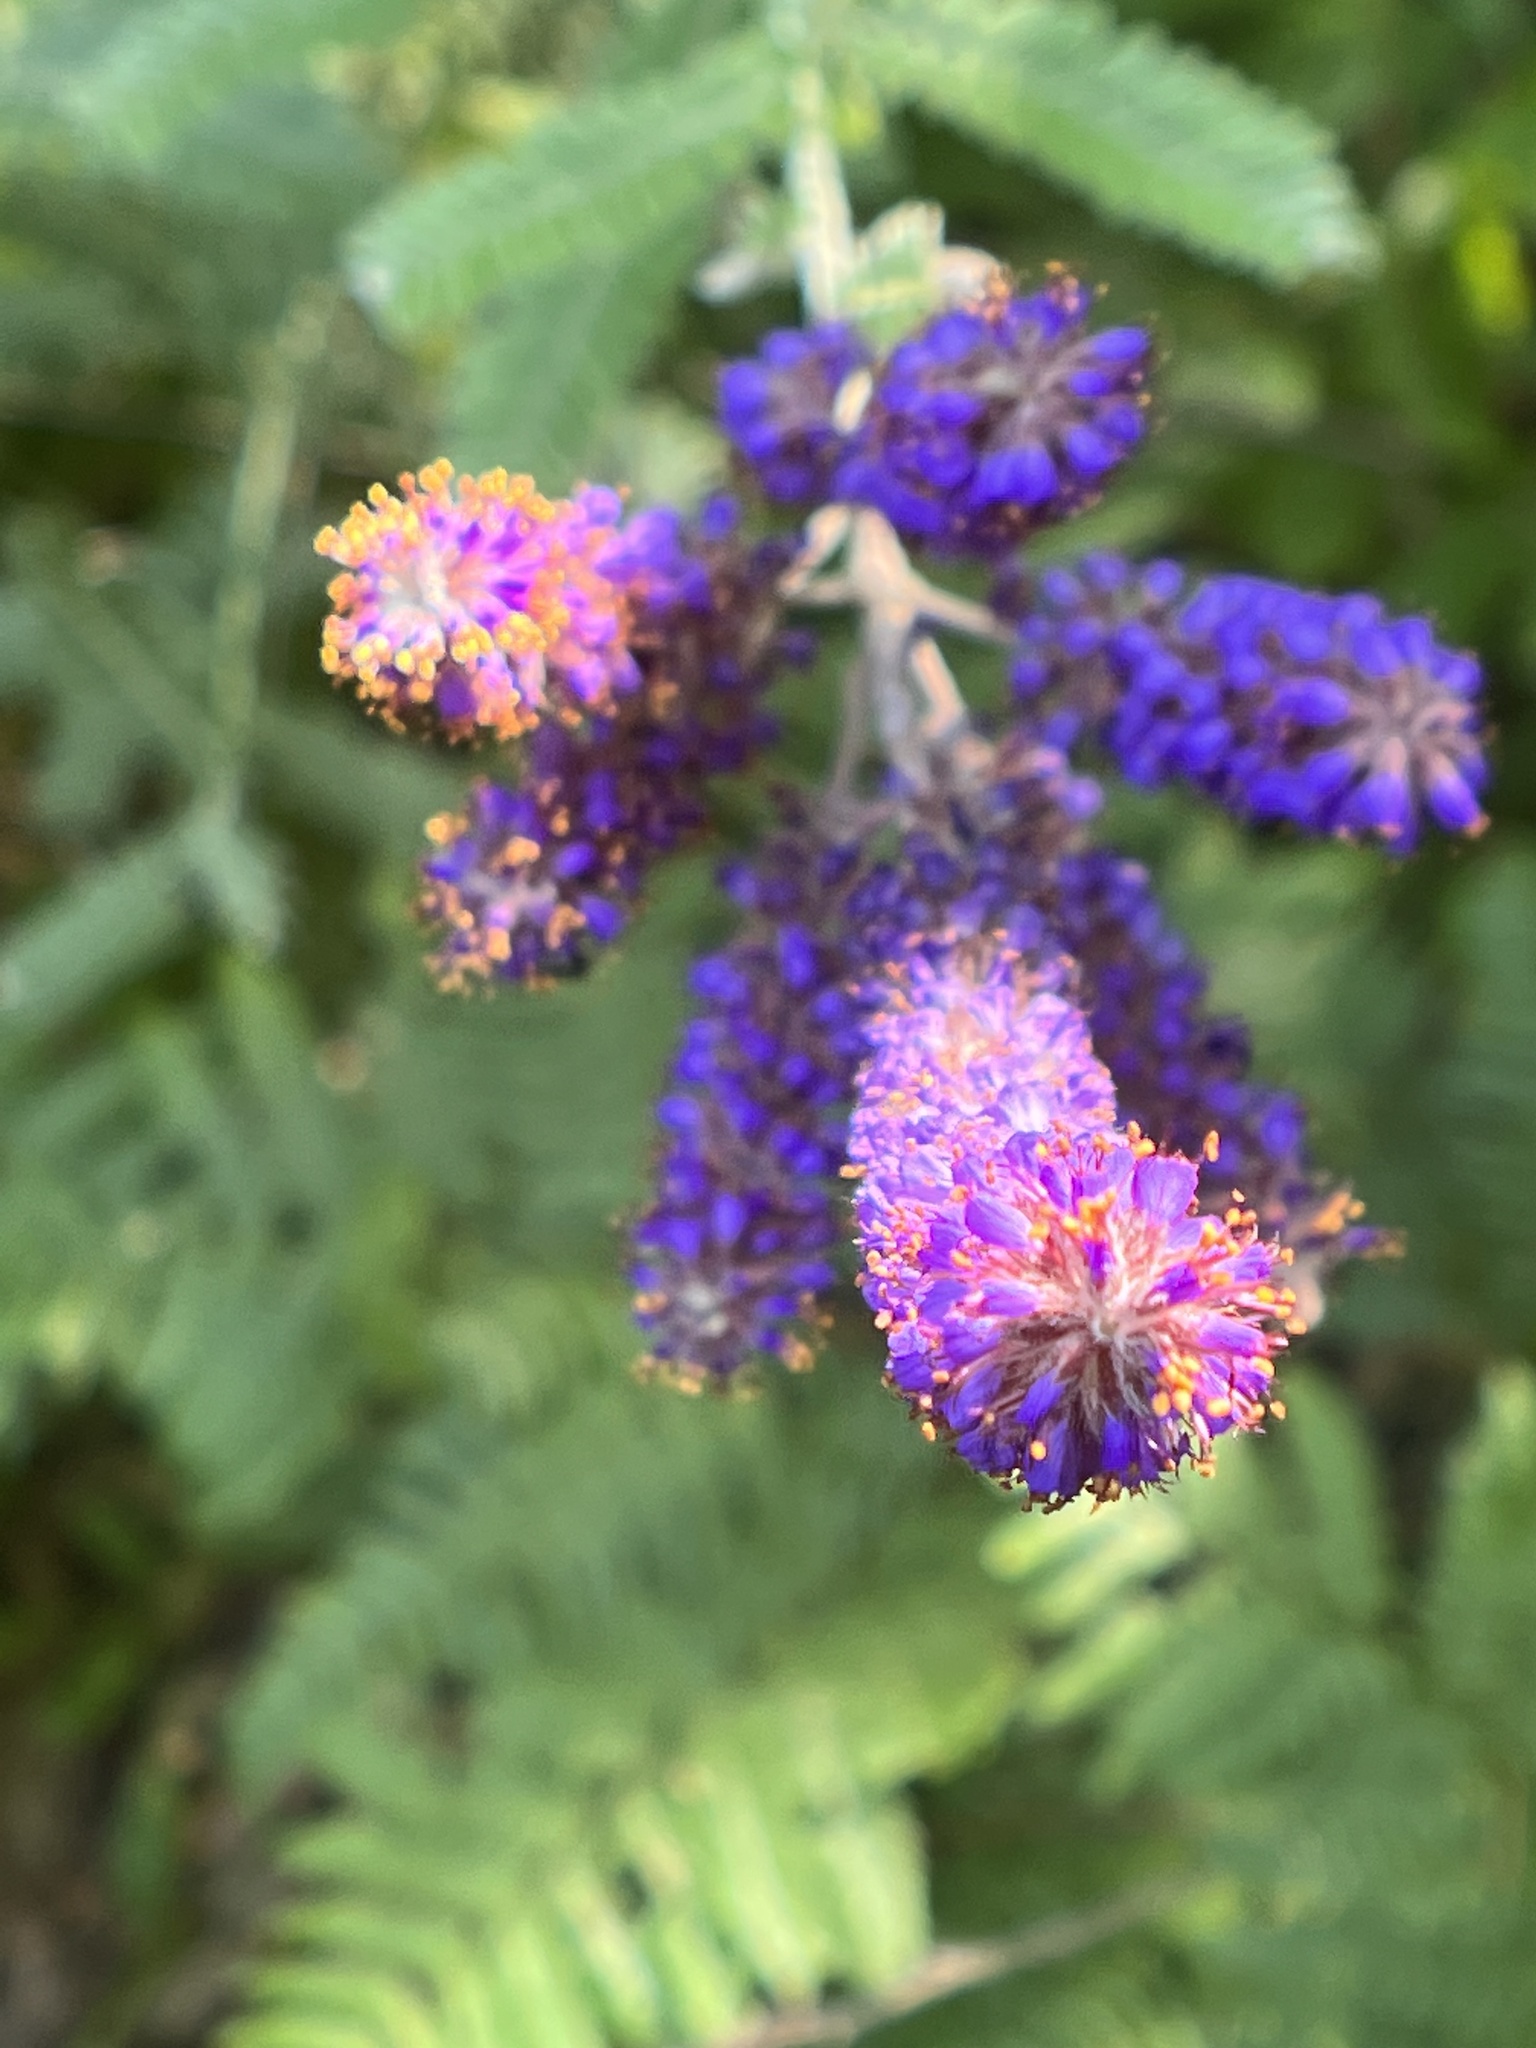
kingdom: Plantae
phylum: Tracheophyta
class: Magnoliopsida
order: Fabales
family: Fabaceae
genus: Amorpha
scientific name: Amorpha canescens
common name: Leadplant
